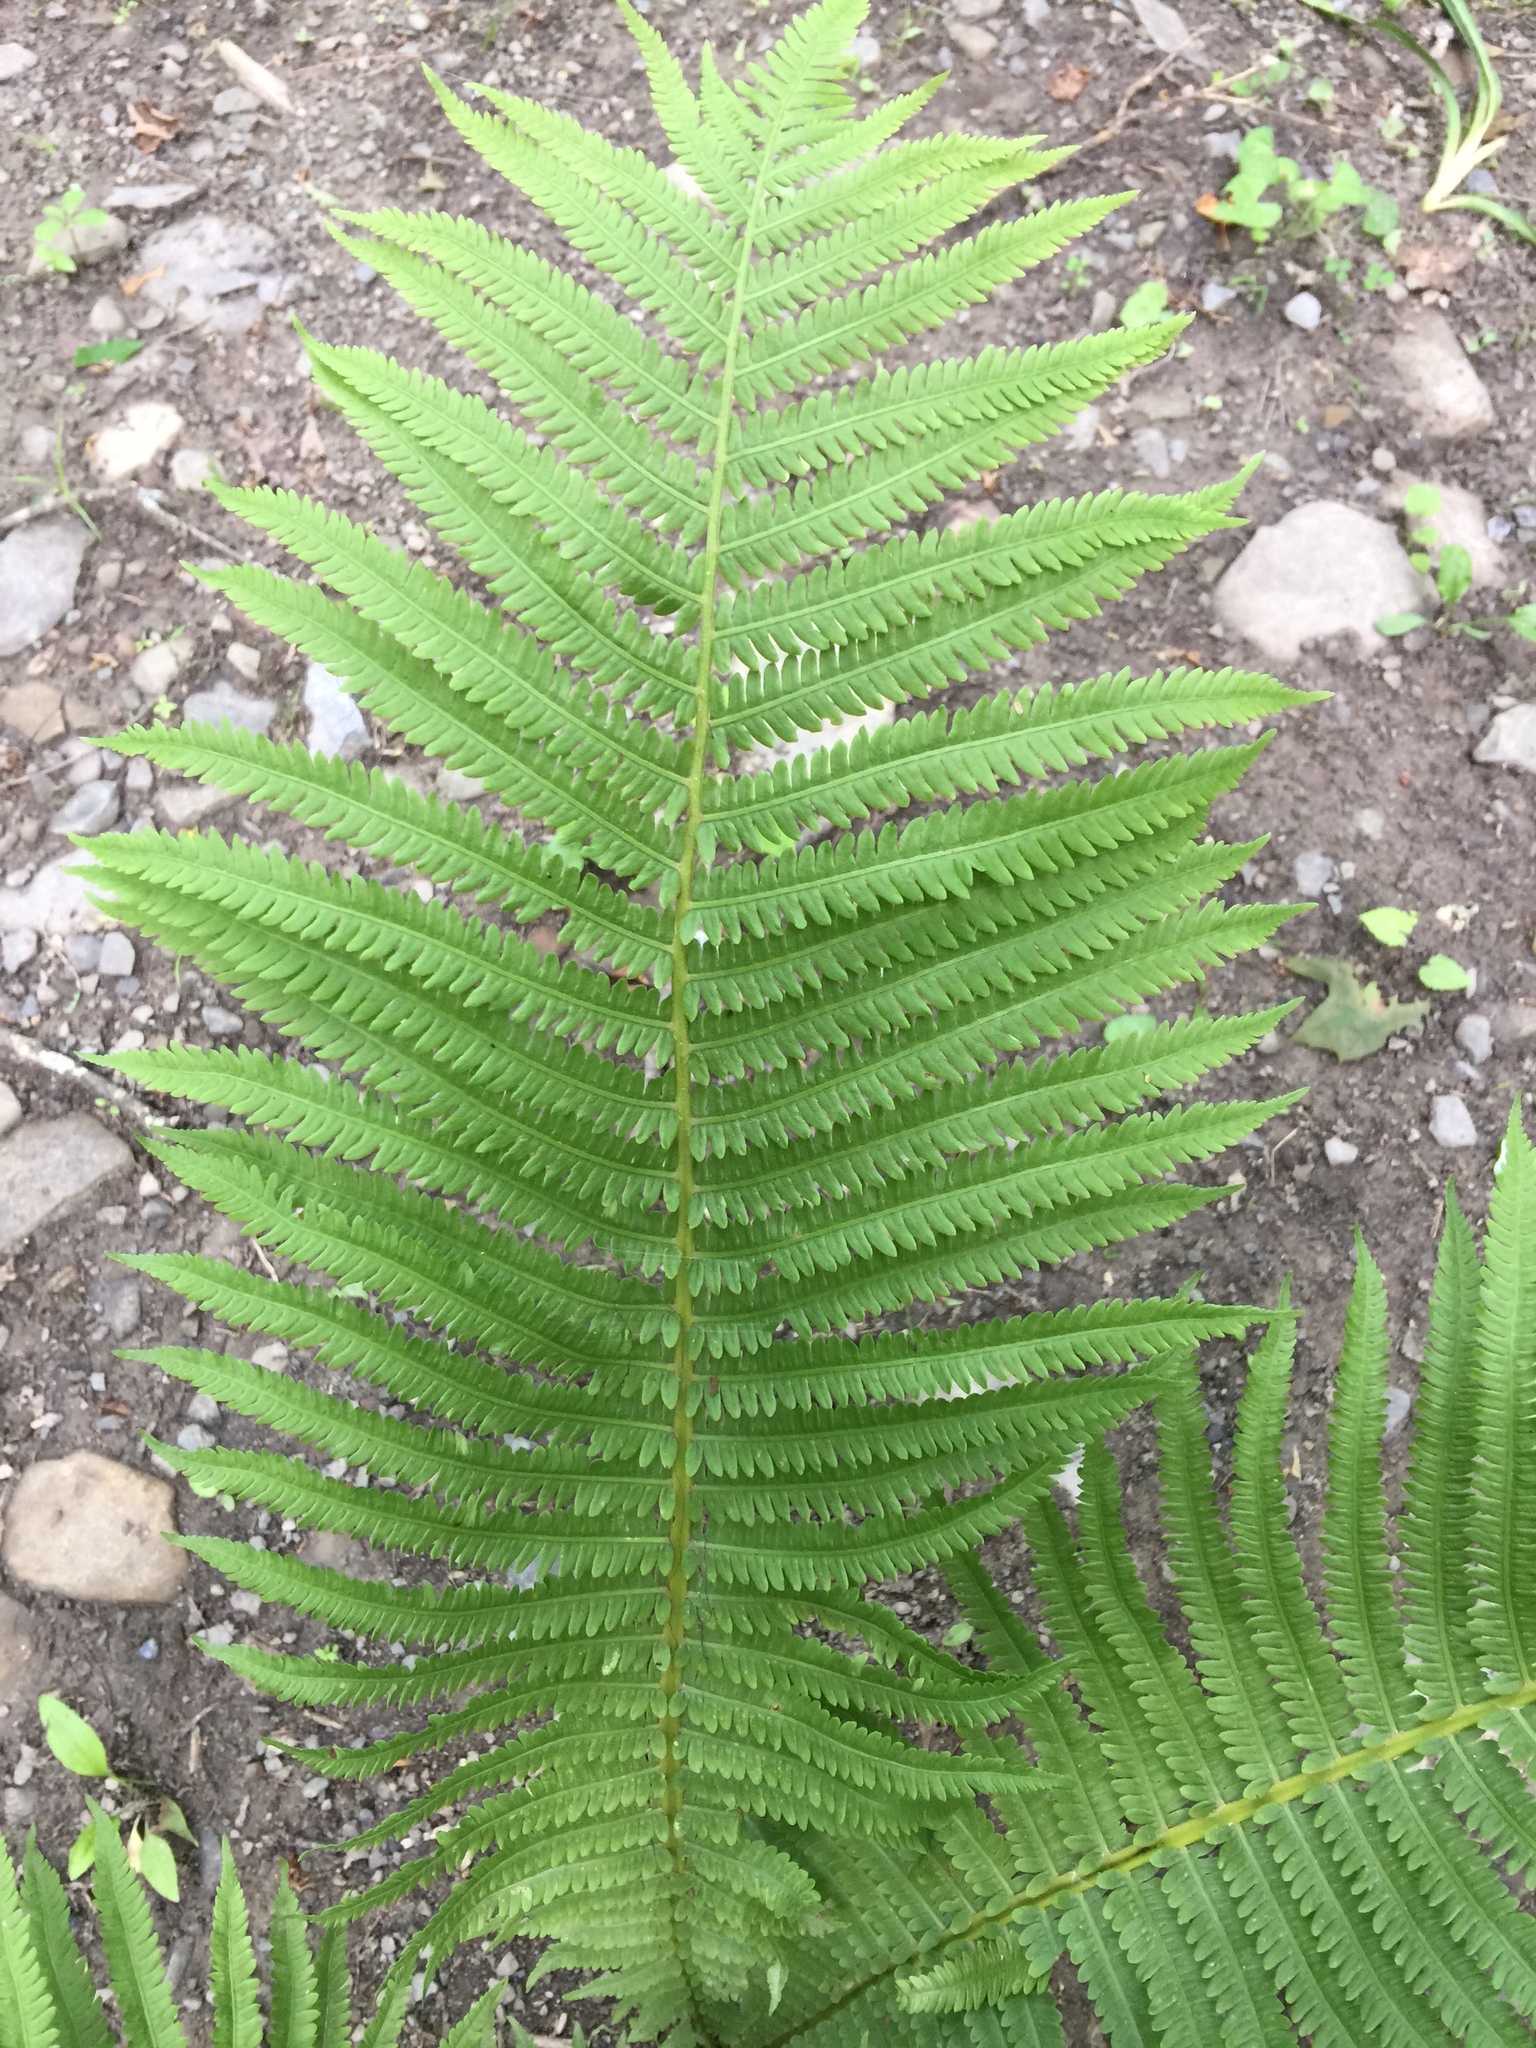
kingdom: Plantae
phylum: Tracheophyta
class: Polypodiopsida
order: Polypodiales
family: Onocleaceae
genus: Matteuccia
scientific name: Matteuccia struthiopteris
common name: Ostrich fern
